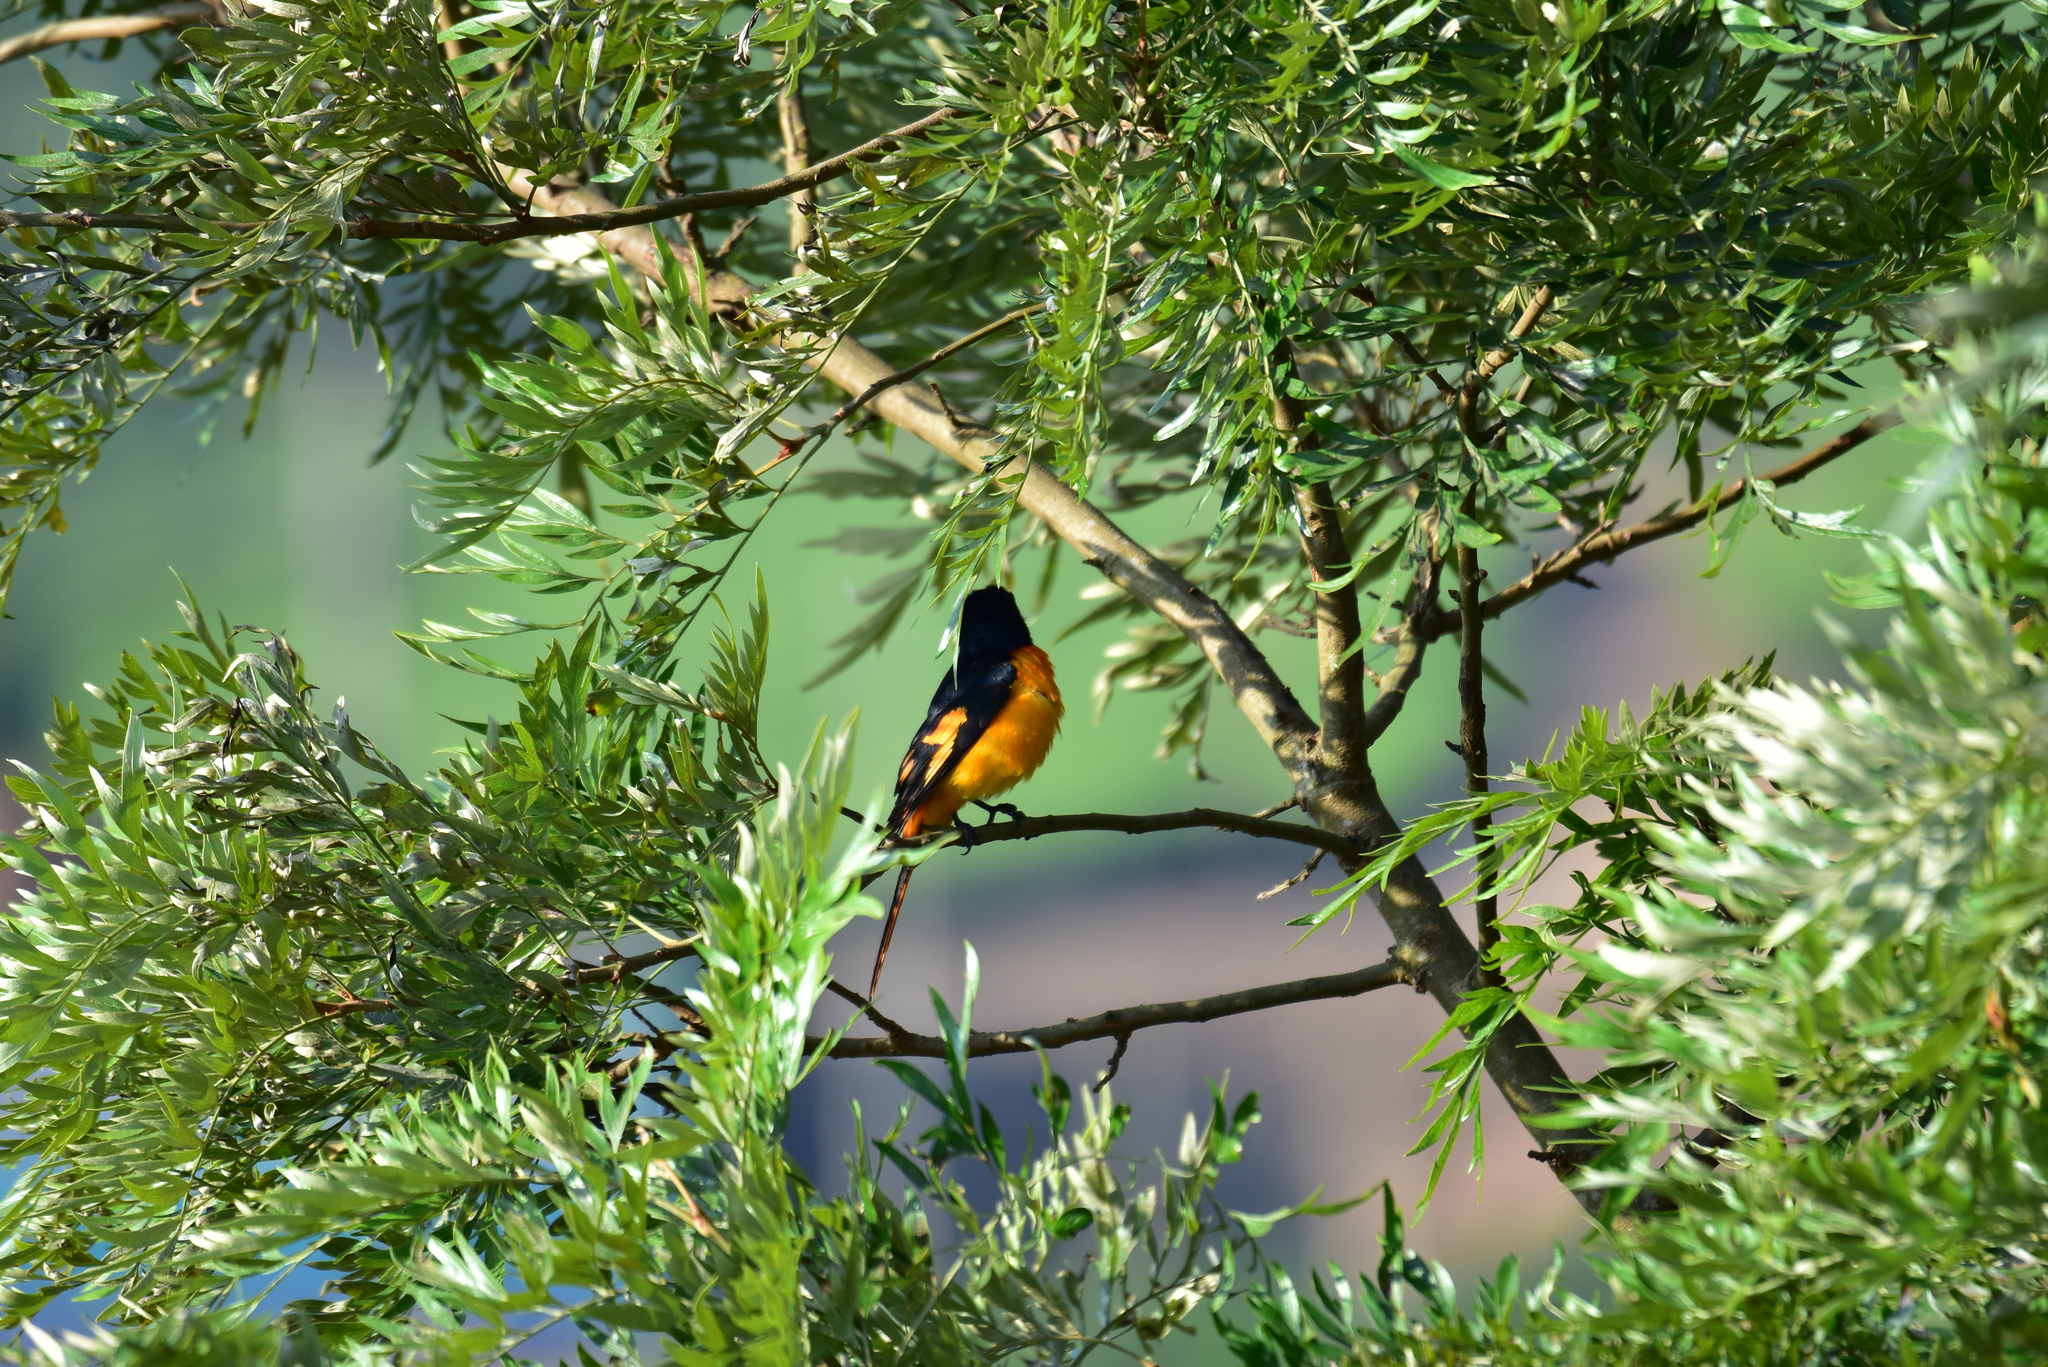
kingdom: Animalia
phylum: Chordata
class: Aves
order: Passeriformes
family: Campephagidae
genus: Pericrocotus
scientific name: Pericrocotus flammeus
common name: Orange minivet
